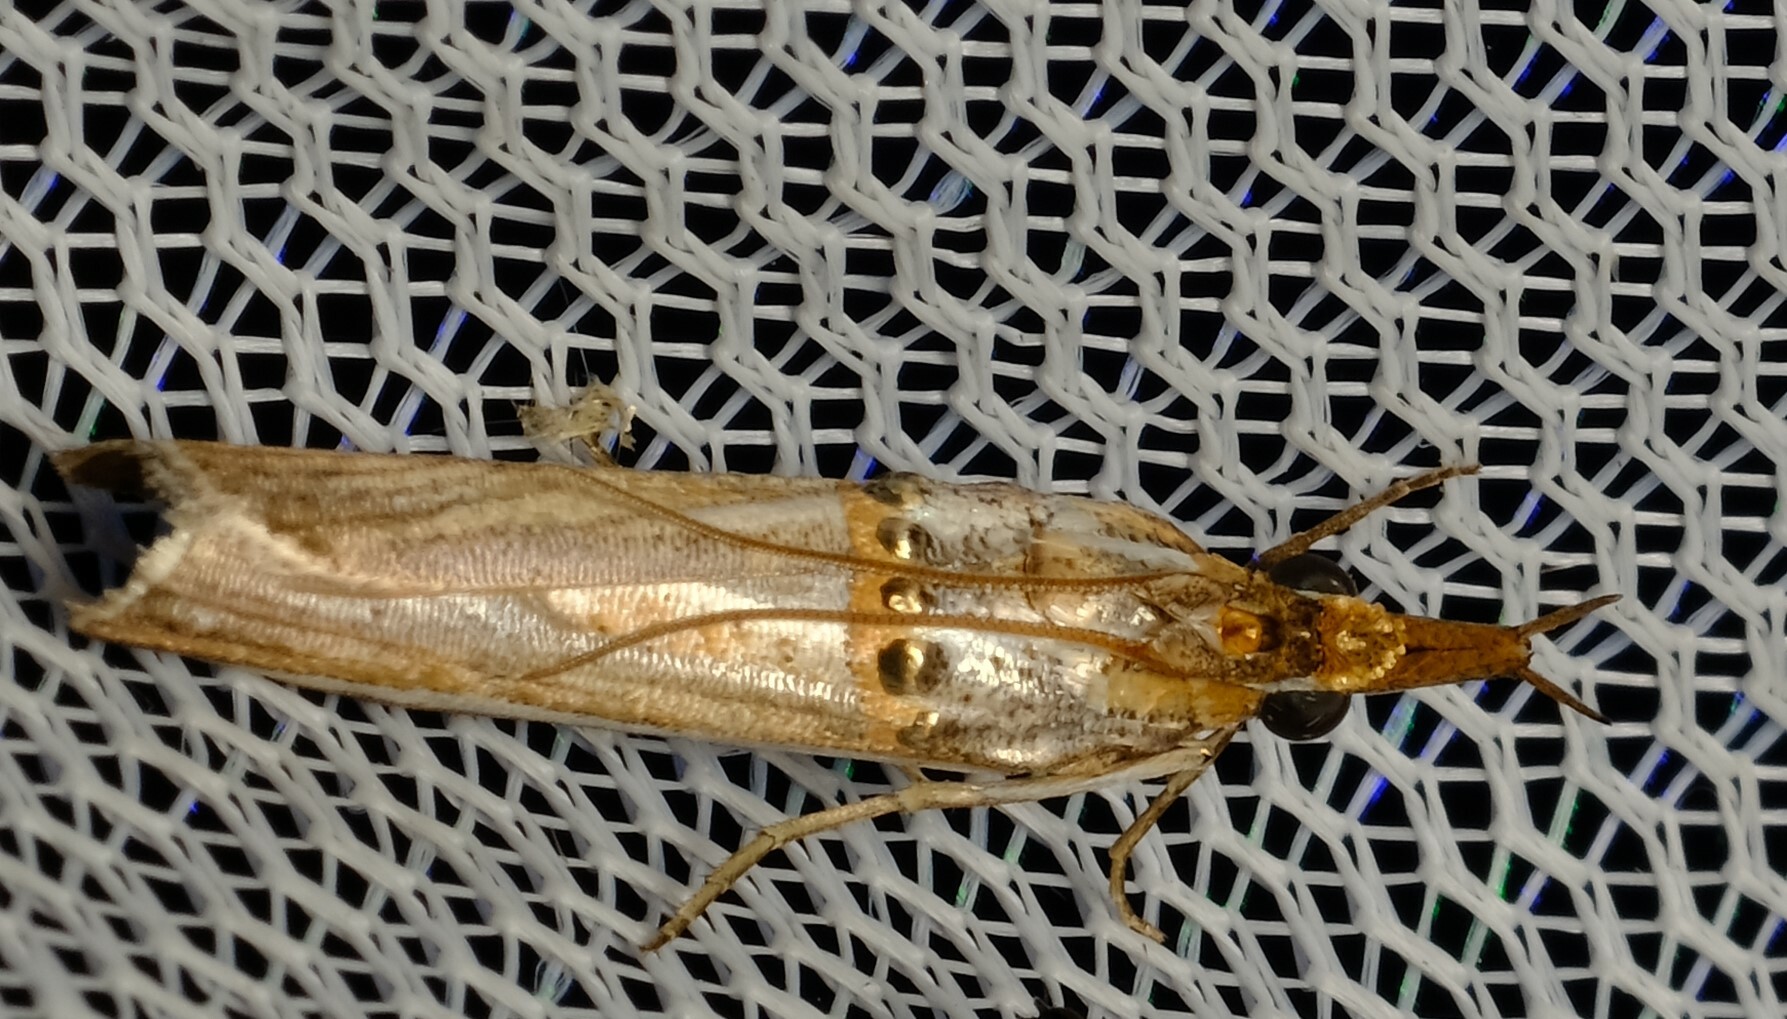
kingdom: Animalia
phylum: Arthropoda
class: Insecta
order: Lepidoptera
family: Pyralidae
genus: Etiella
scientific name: Etiella behrii
